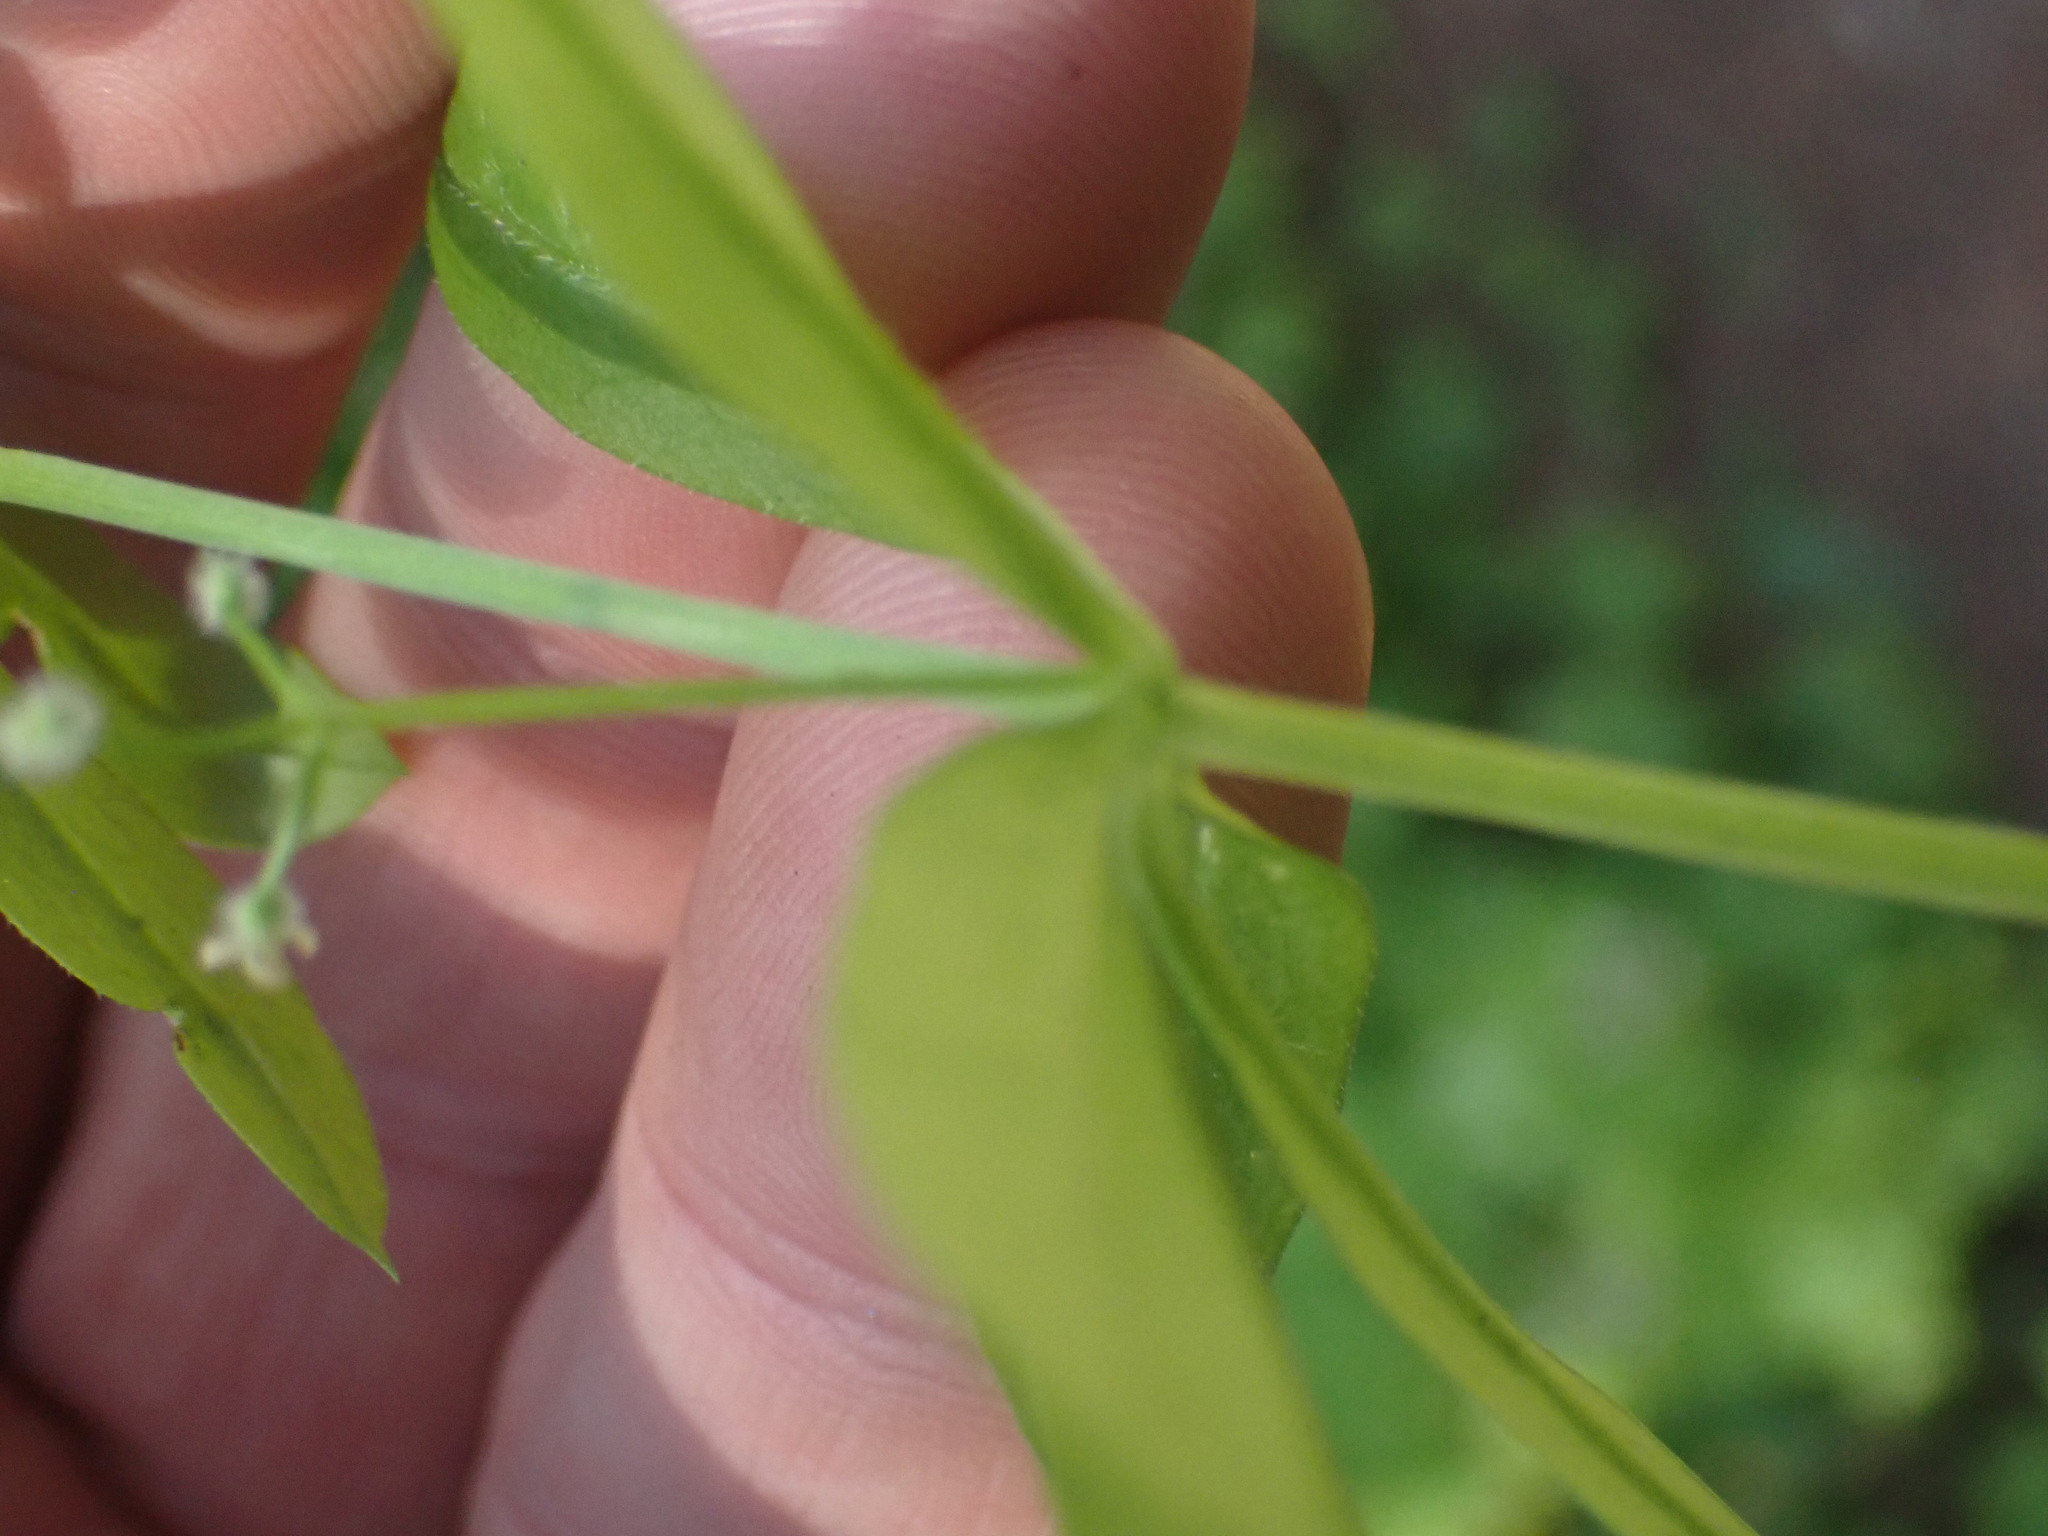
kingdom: Plantae
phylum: Tracheophyta
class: Magnoliopsida
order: Gentianales
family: Rubiaceae
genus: Galium
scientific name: Galium triflorum
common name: Fragrant bedstraw
